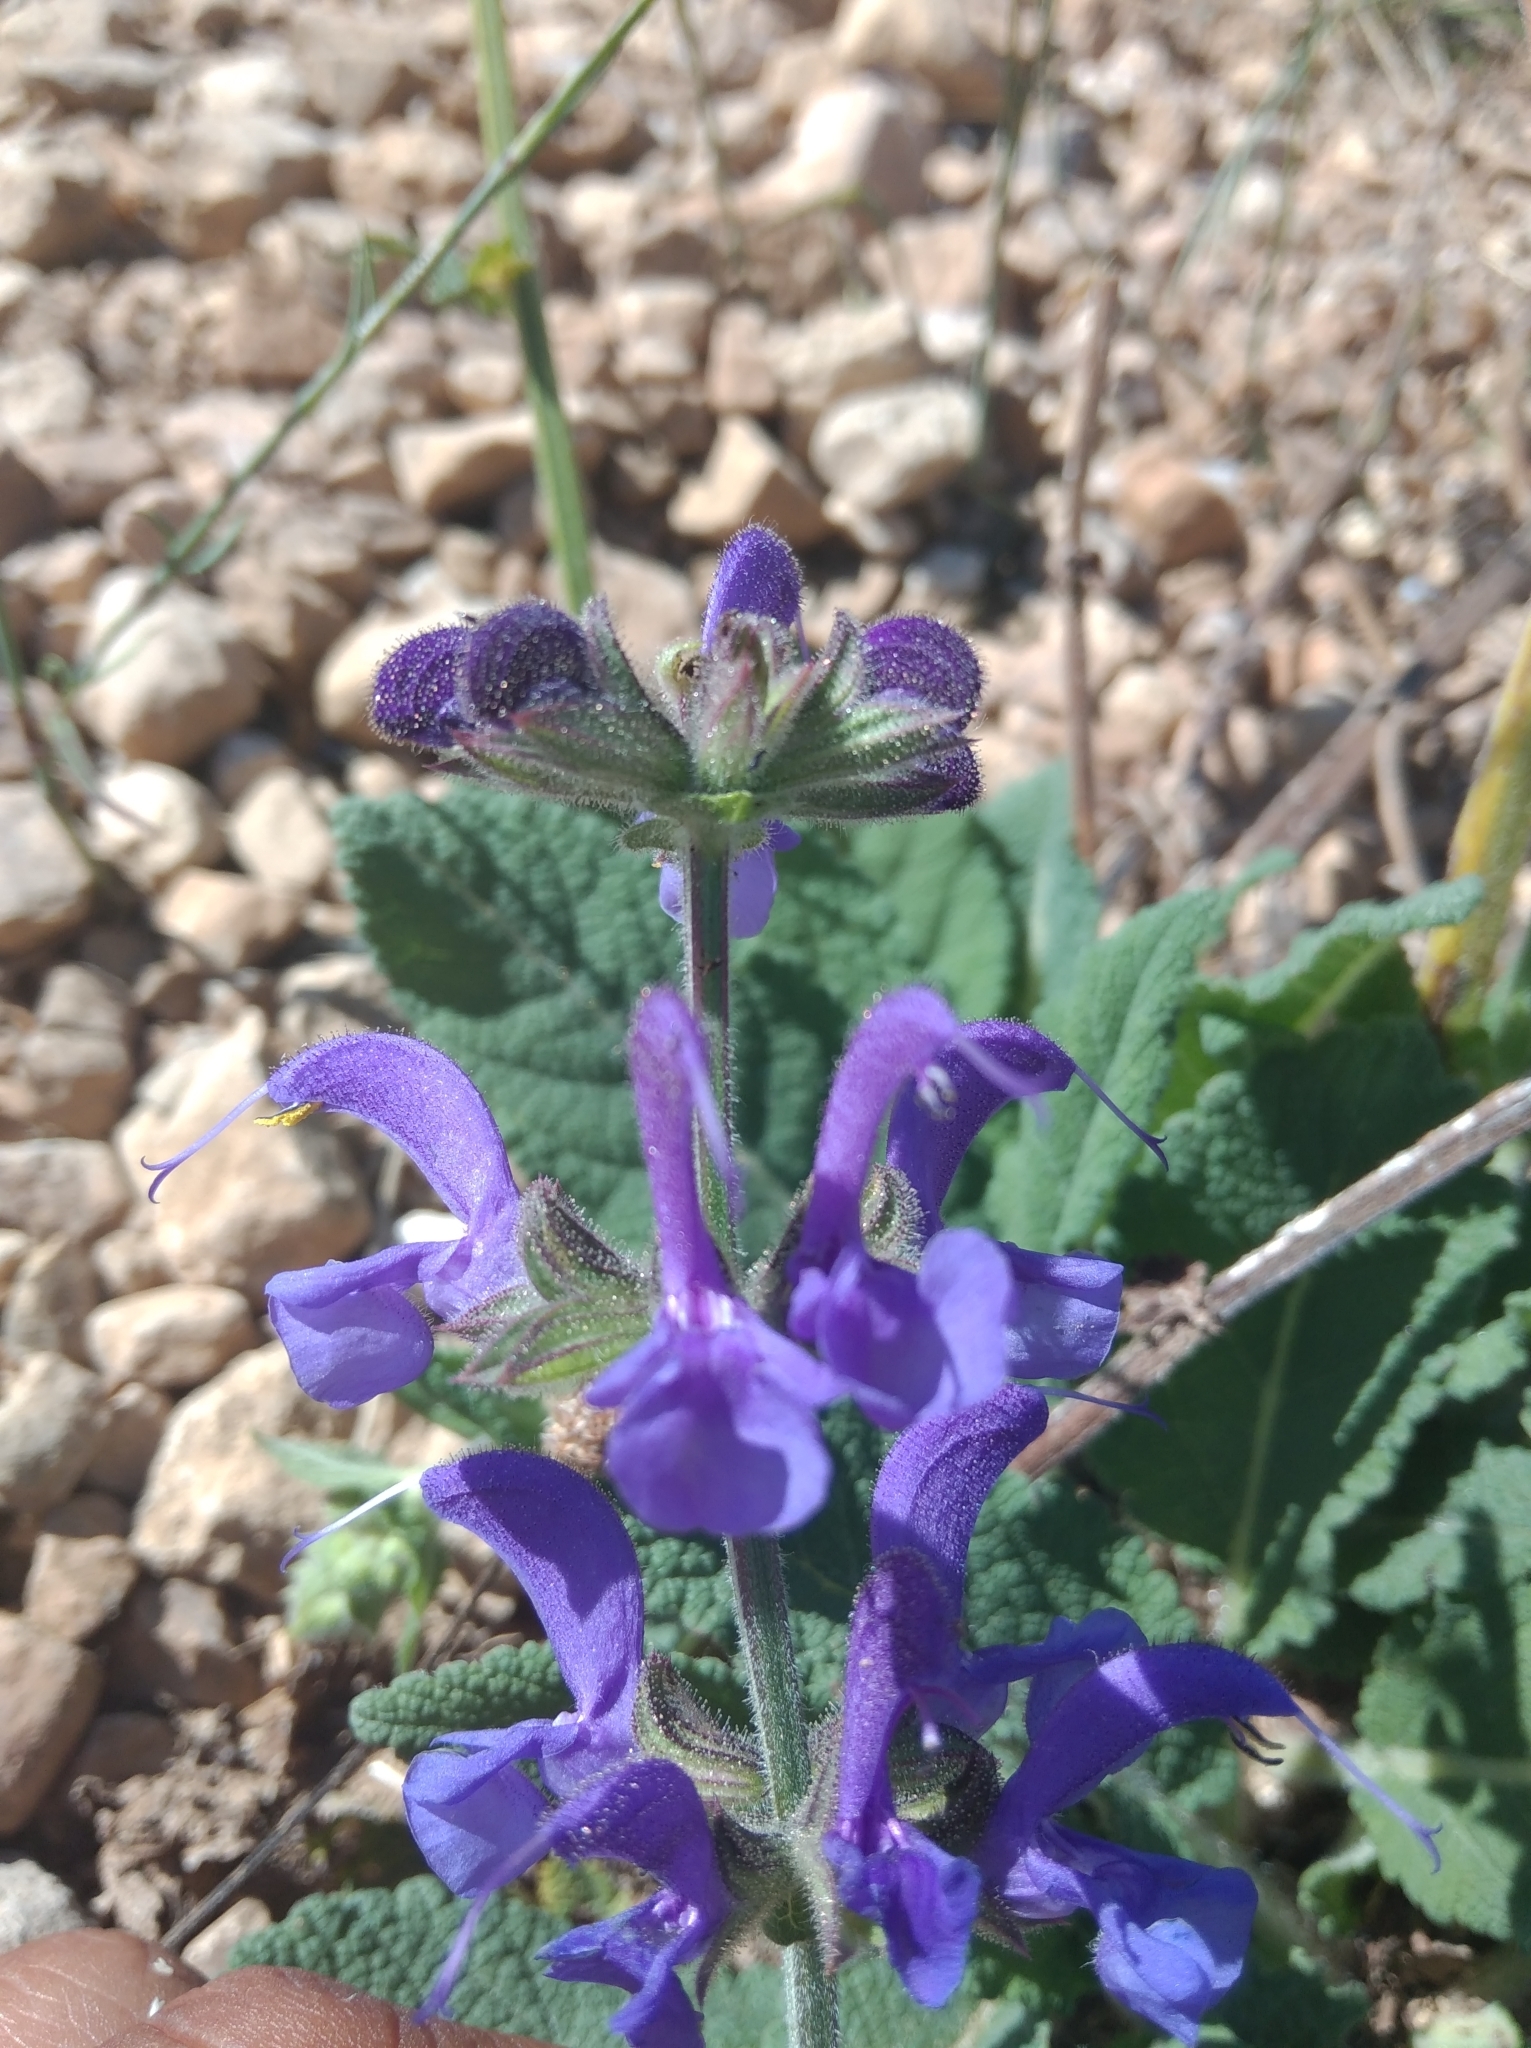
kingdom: Plantae
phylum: Tracheophyta
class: Magnoliopsida
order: Lamiales
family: Lamiaceae
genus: Salvia
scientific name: Salvia pratensis
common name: Meadow sage
